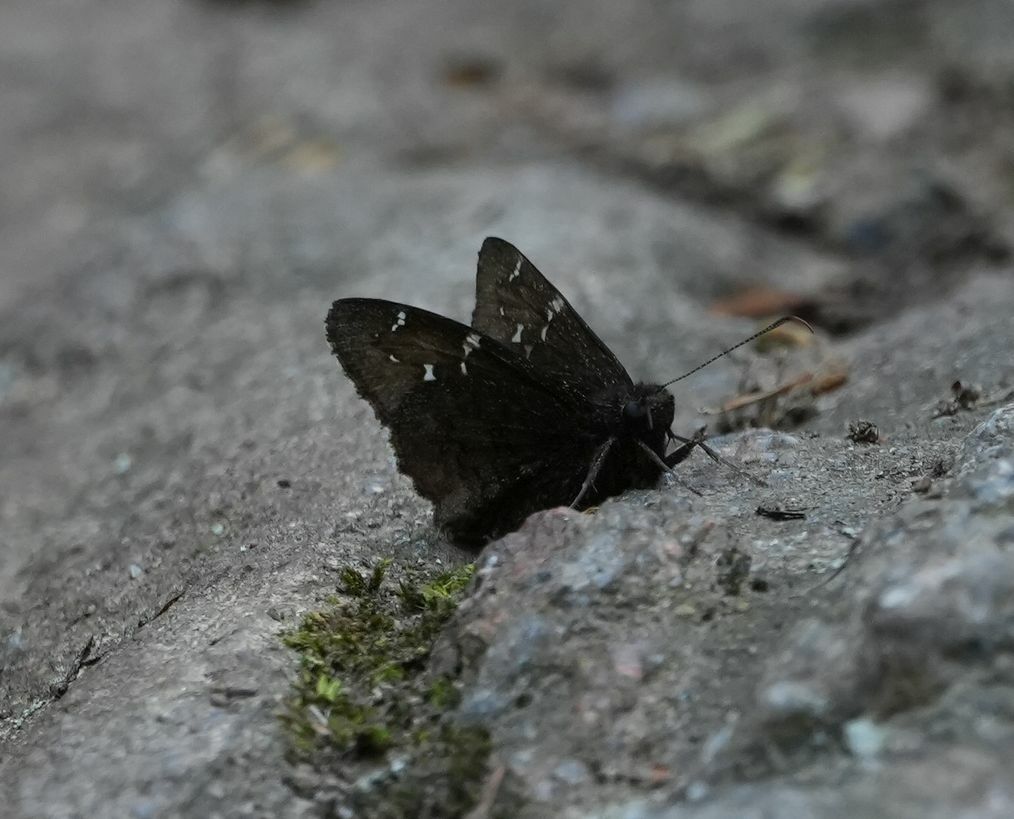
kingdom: Animalia
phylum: Arthropoda
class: Insecta
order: Lepidoptera
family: Hesperiidae
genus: Thorybes
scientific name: Thorybes pylades
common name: Northern cloudywing
